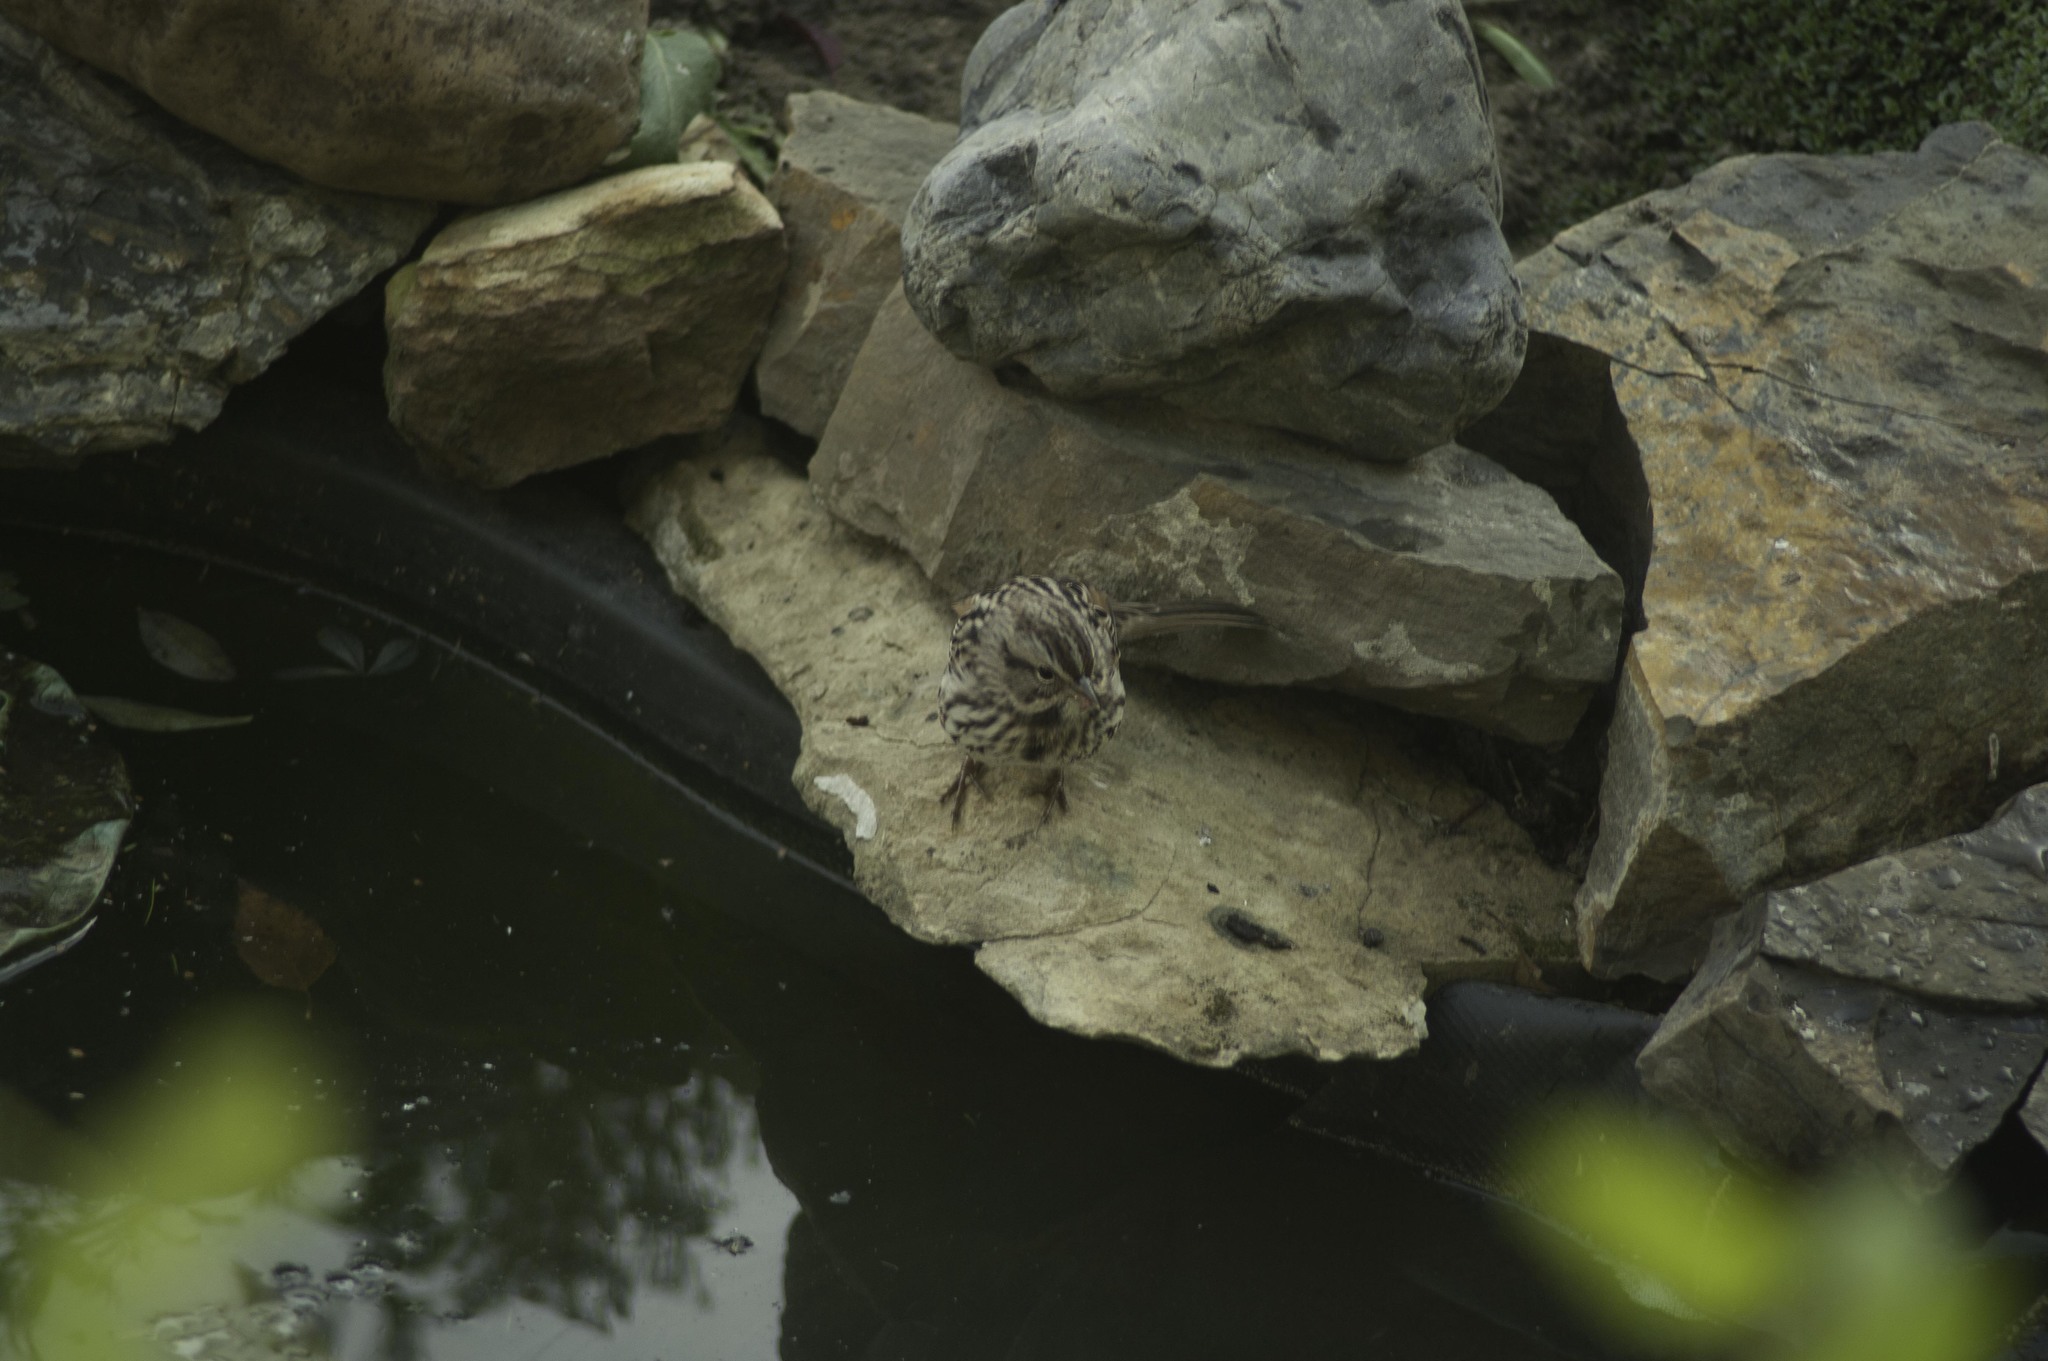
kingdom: Animalia
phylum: Chordata
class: Aves
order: Passeriformes
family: Passerellidae
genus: Melospiza
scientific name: Melospiza melodia
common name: Song sparrow
